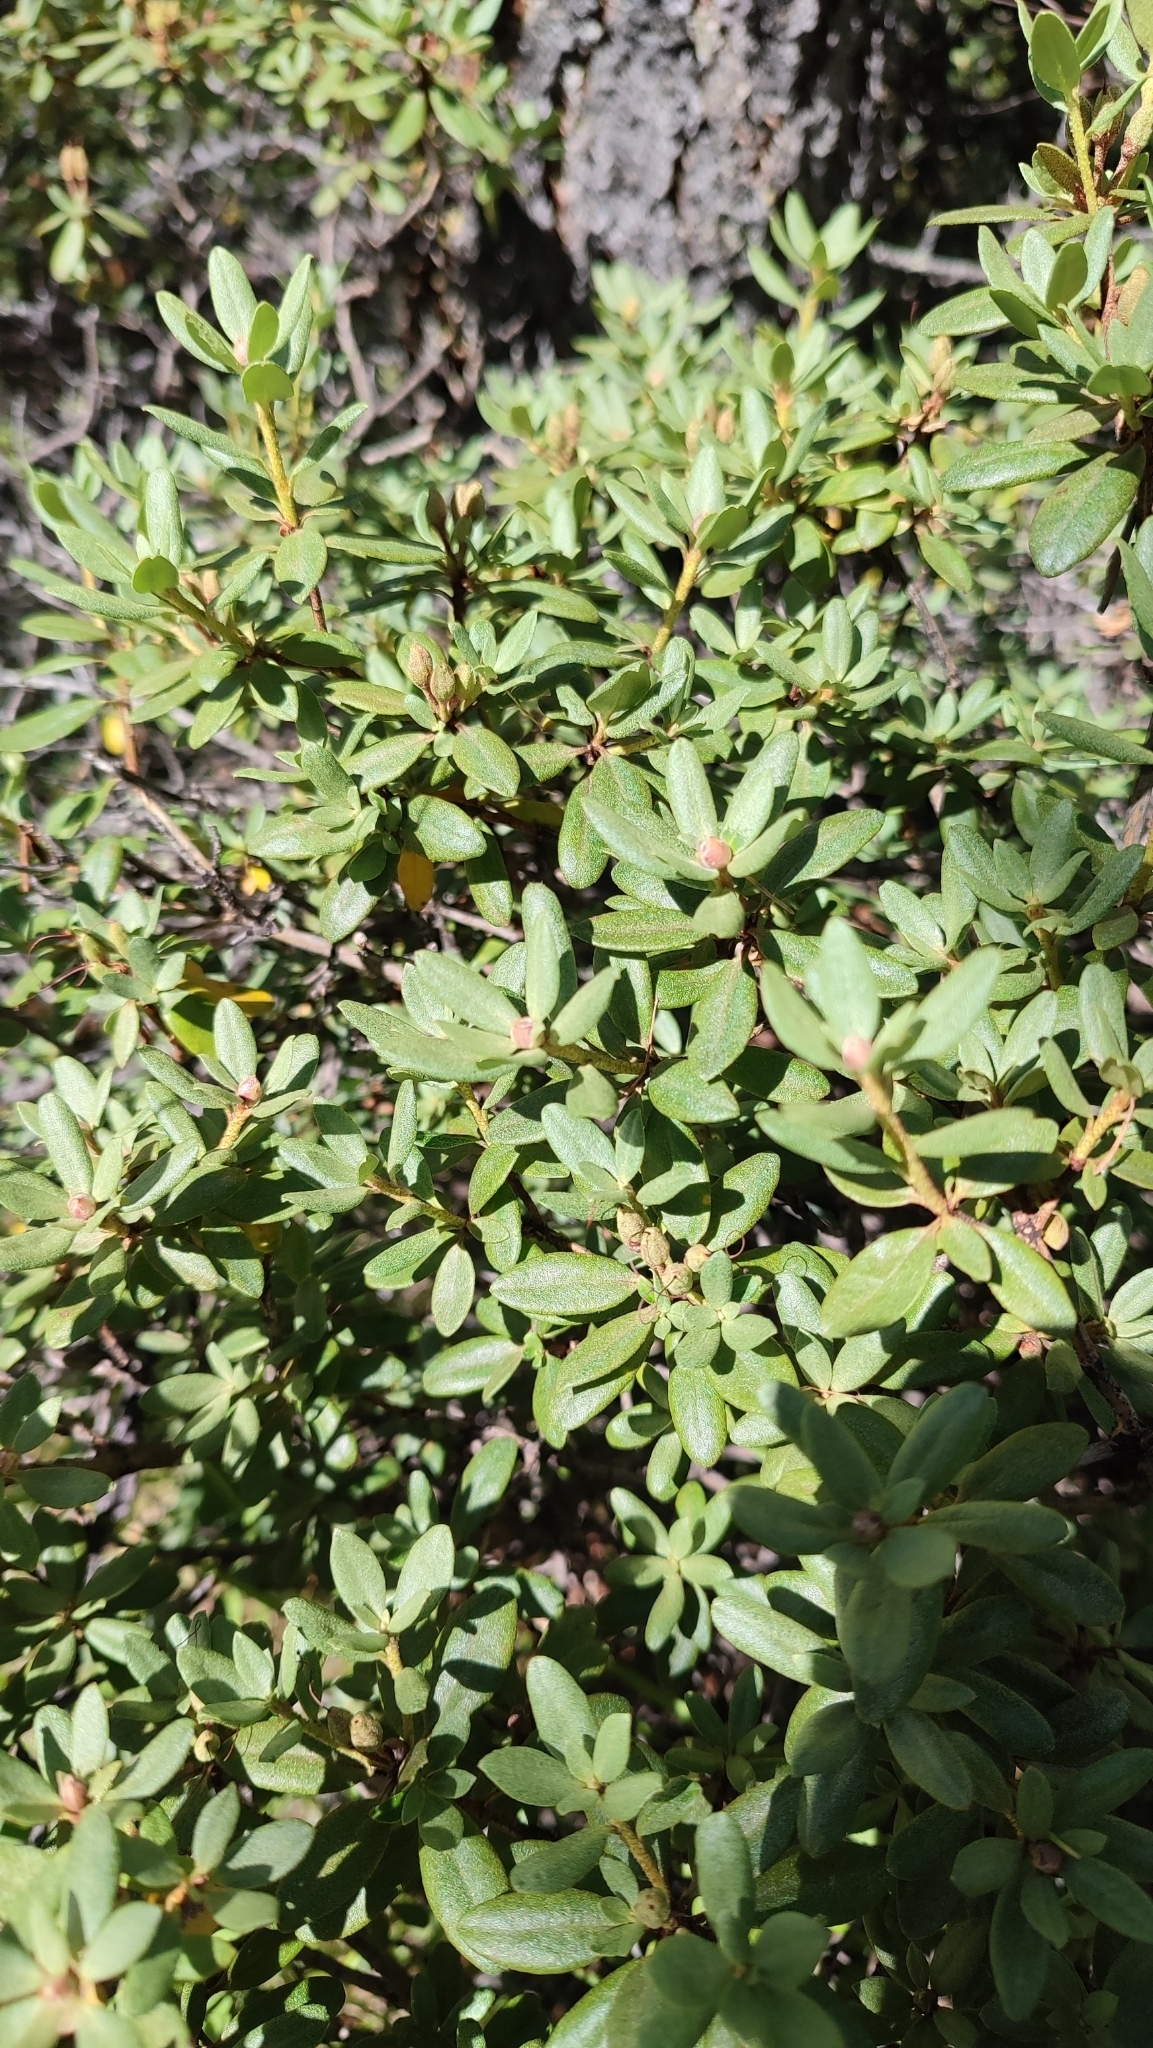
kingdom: Plantae
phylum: Tracheophyta
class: Magnoliopsida
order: Ericales
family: Ericaceae
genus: Rhododendron
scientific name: Rhododendron adamsii
